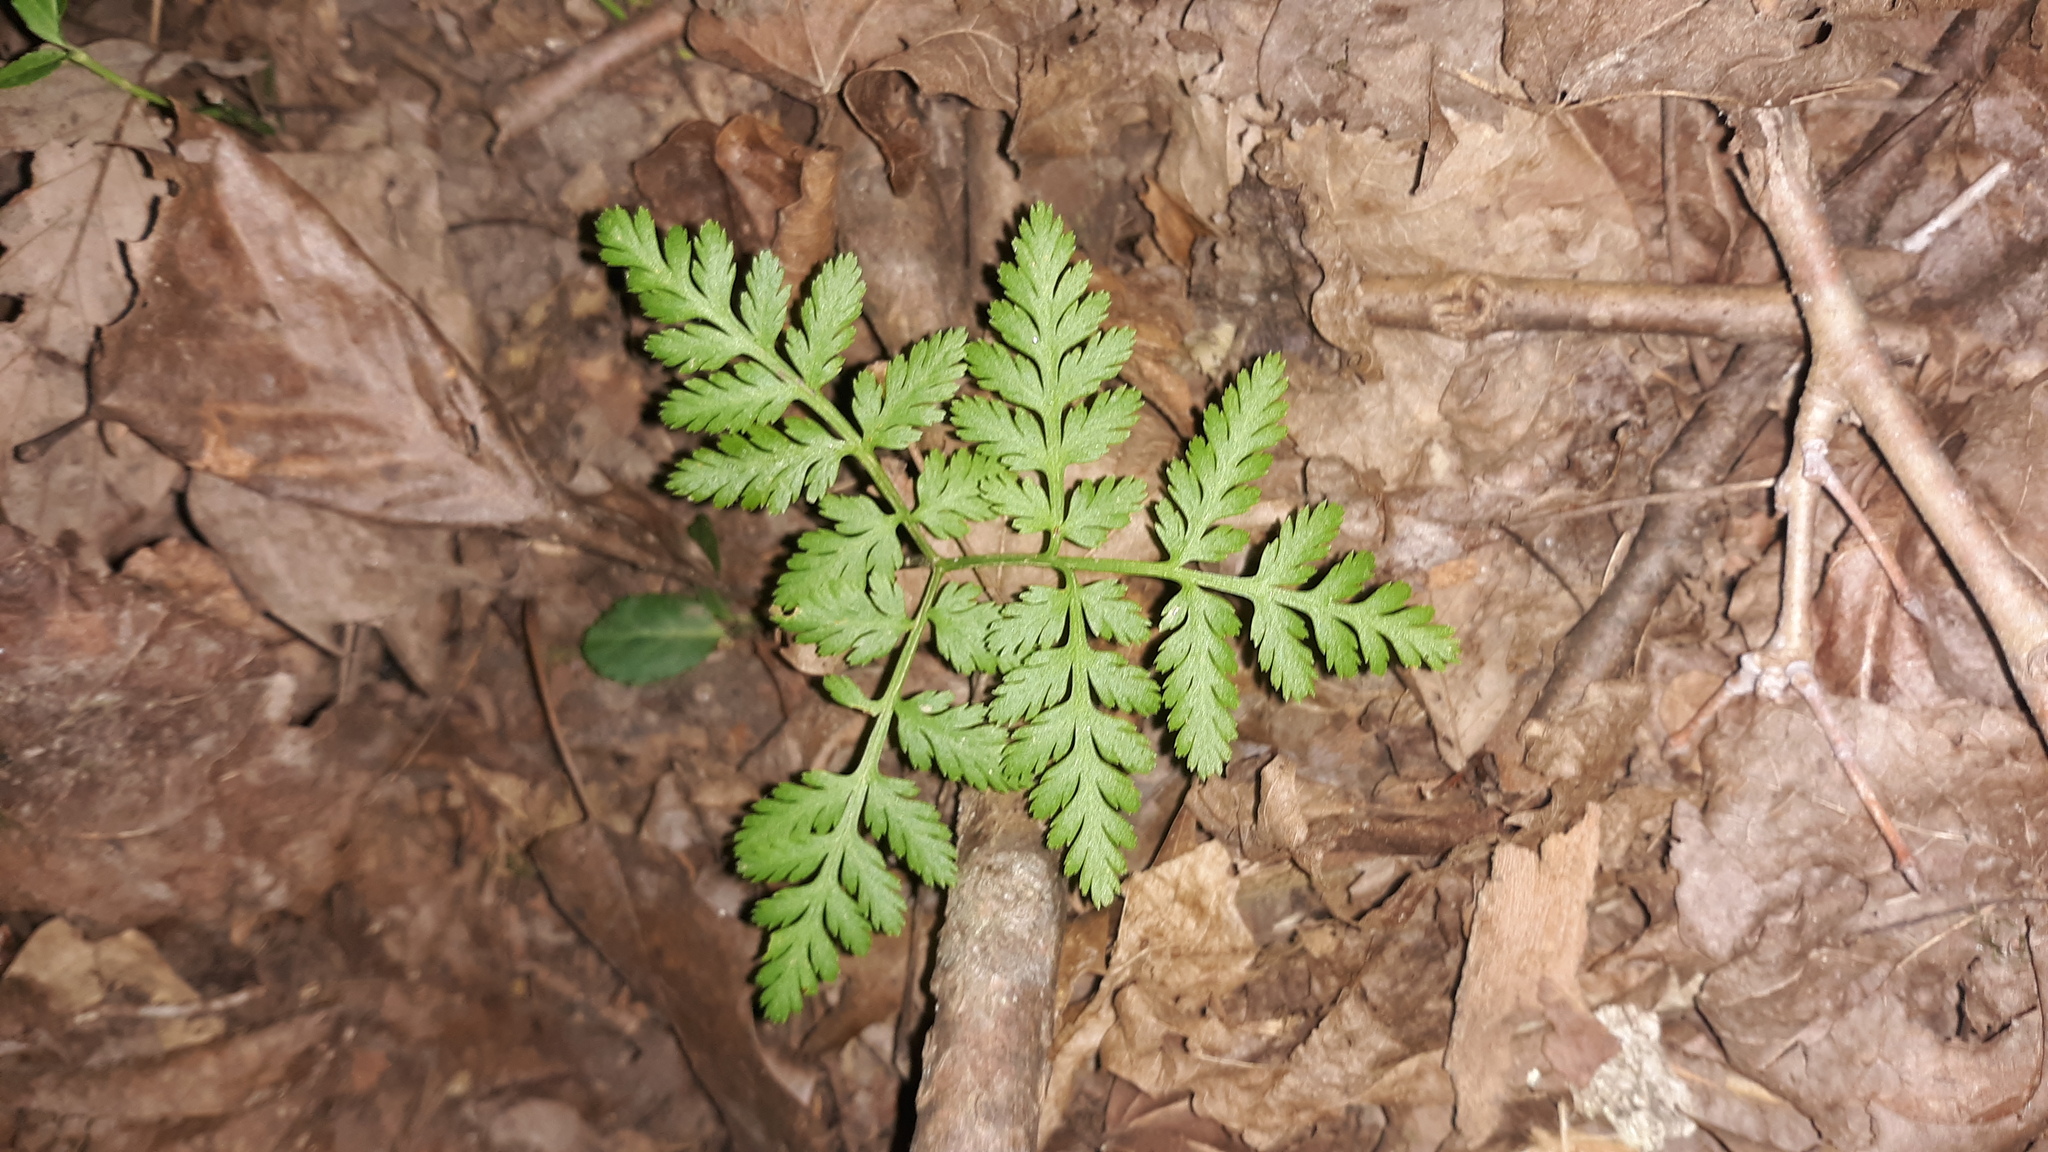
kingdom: Plantae
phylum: Tracheophyta
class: Polypodiopsida
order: Ophioglossales
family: Ophioglossaceae
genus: Botrypus
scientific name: Botrypus virginianus
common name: Common grapefern
